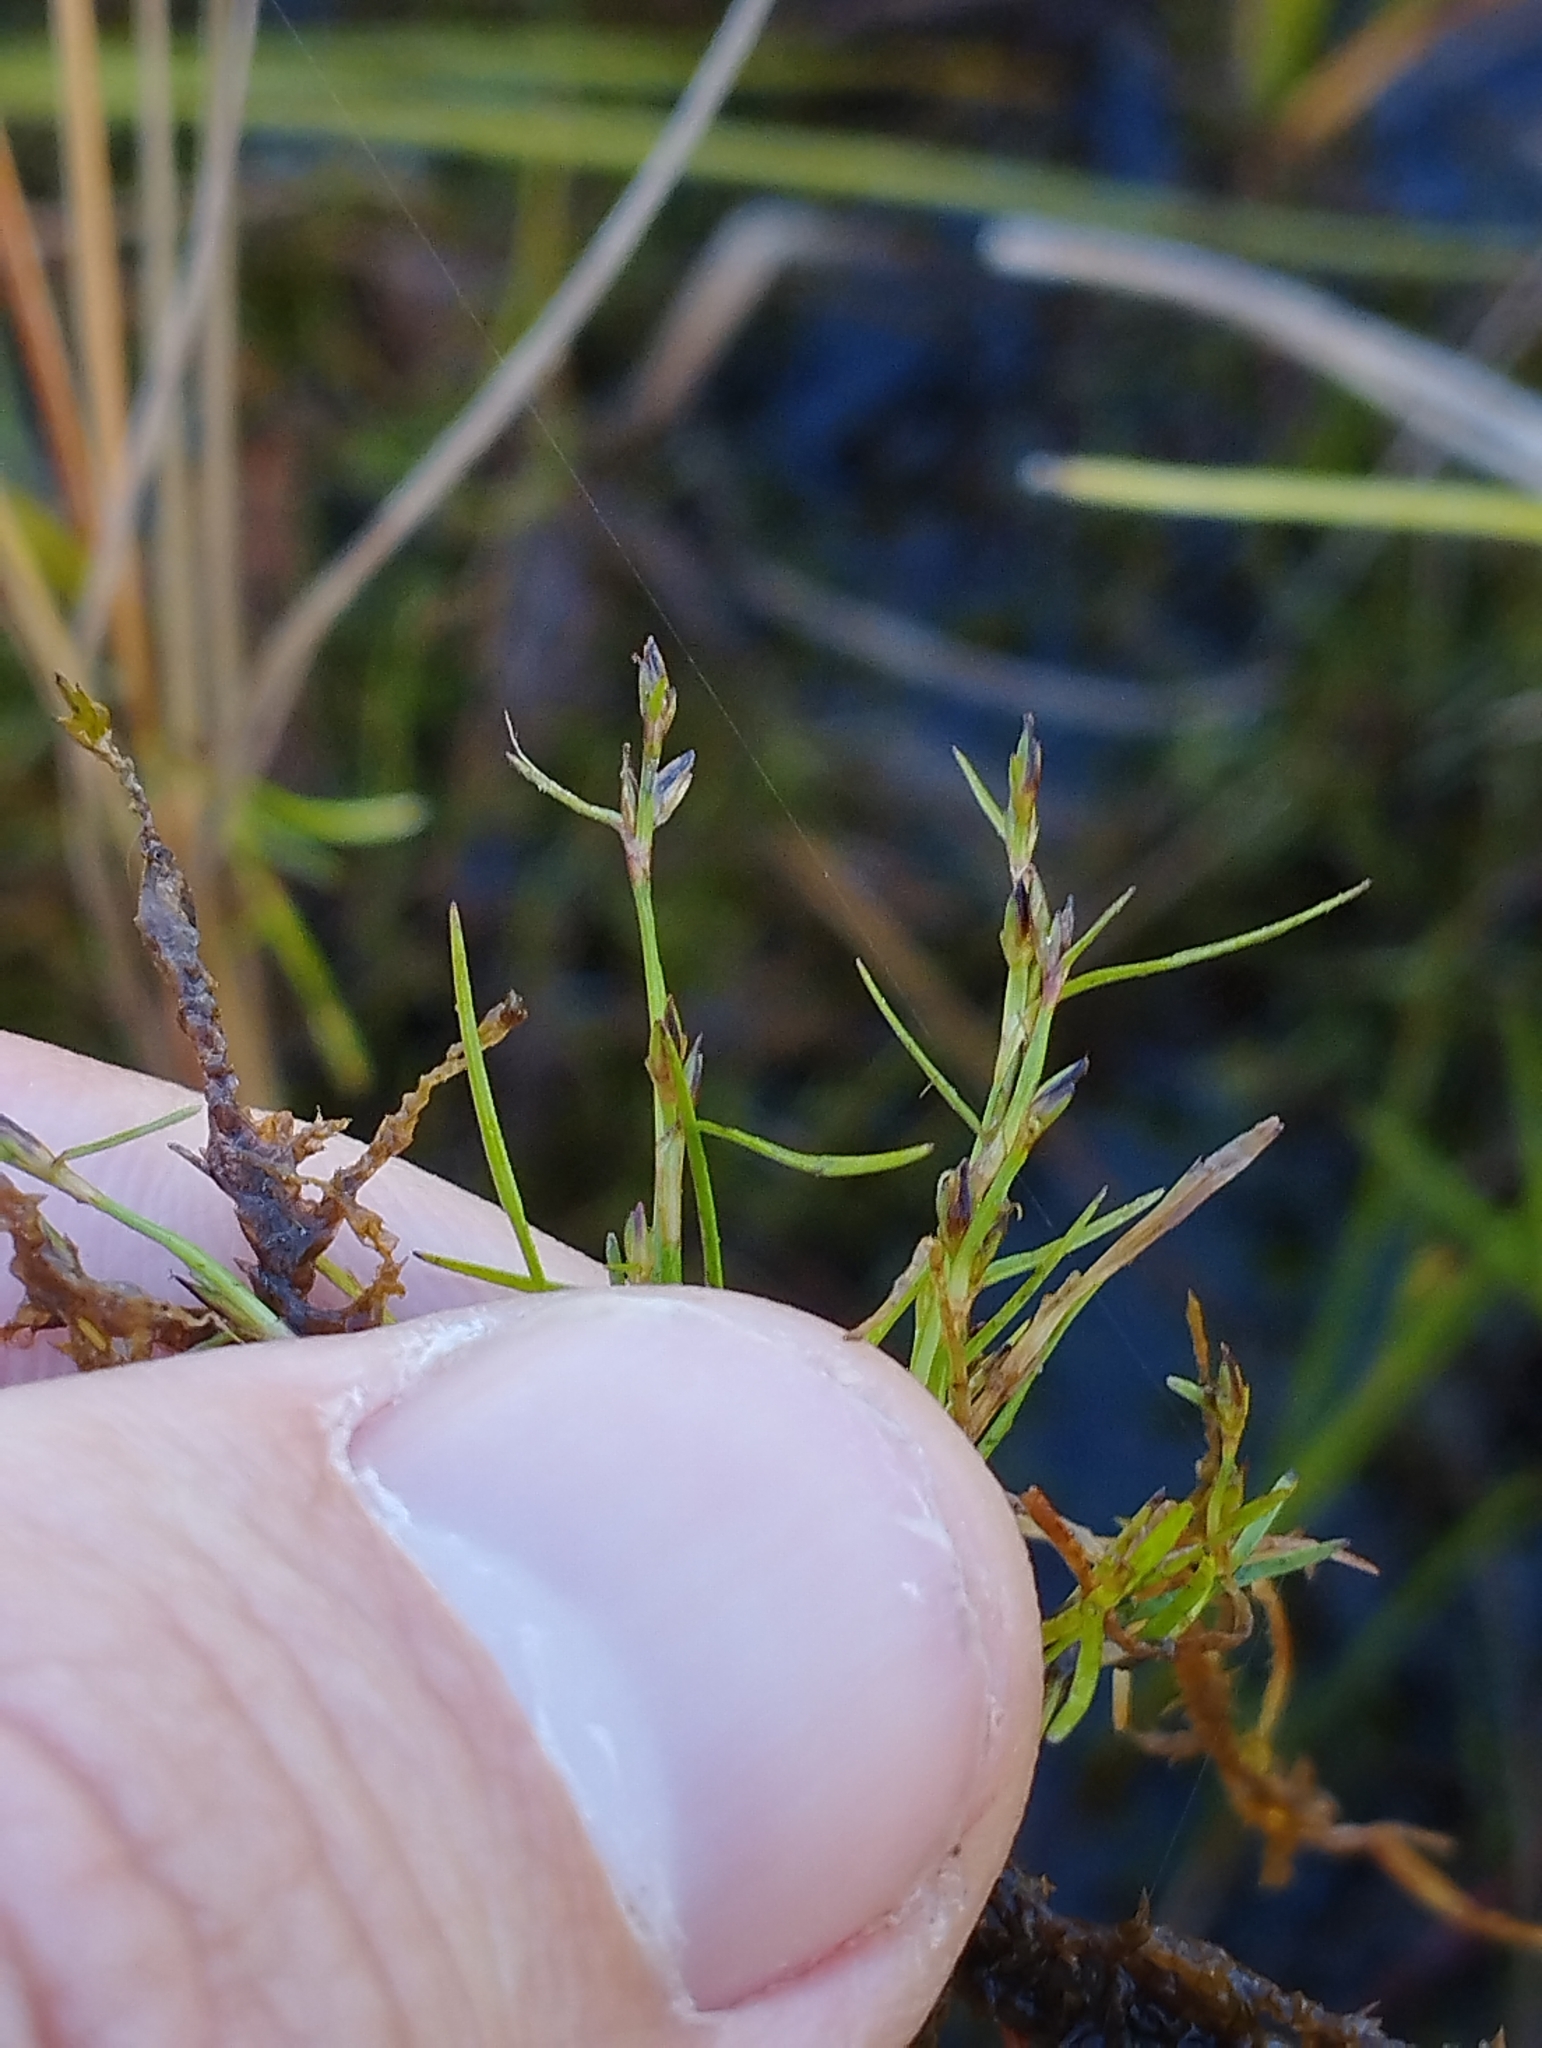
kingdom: Plantae
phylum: Tracheophyta
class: Liliopsida
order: Poales
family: Cyperaceae
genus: Schoenus
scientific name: Schoenus maschalinus
